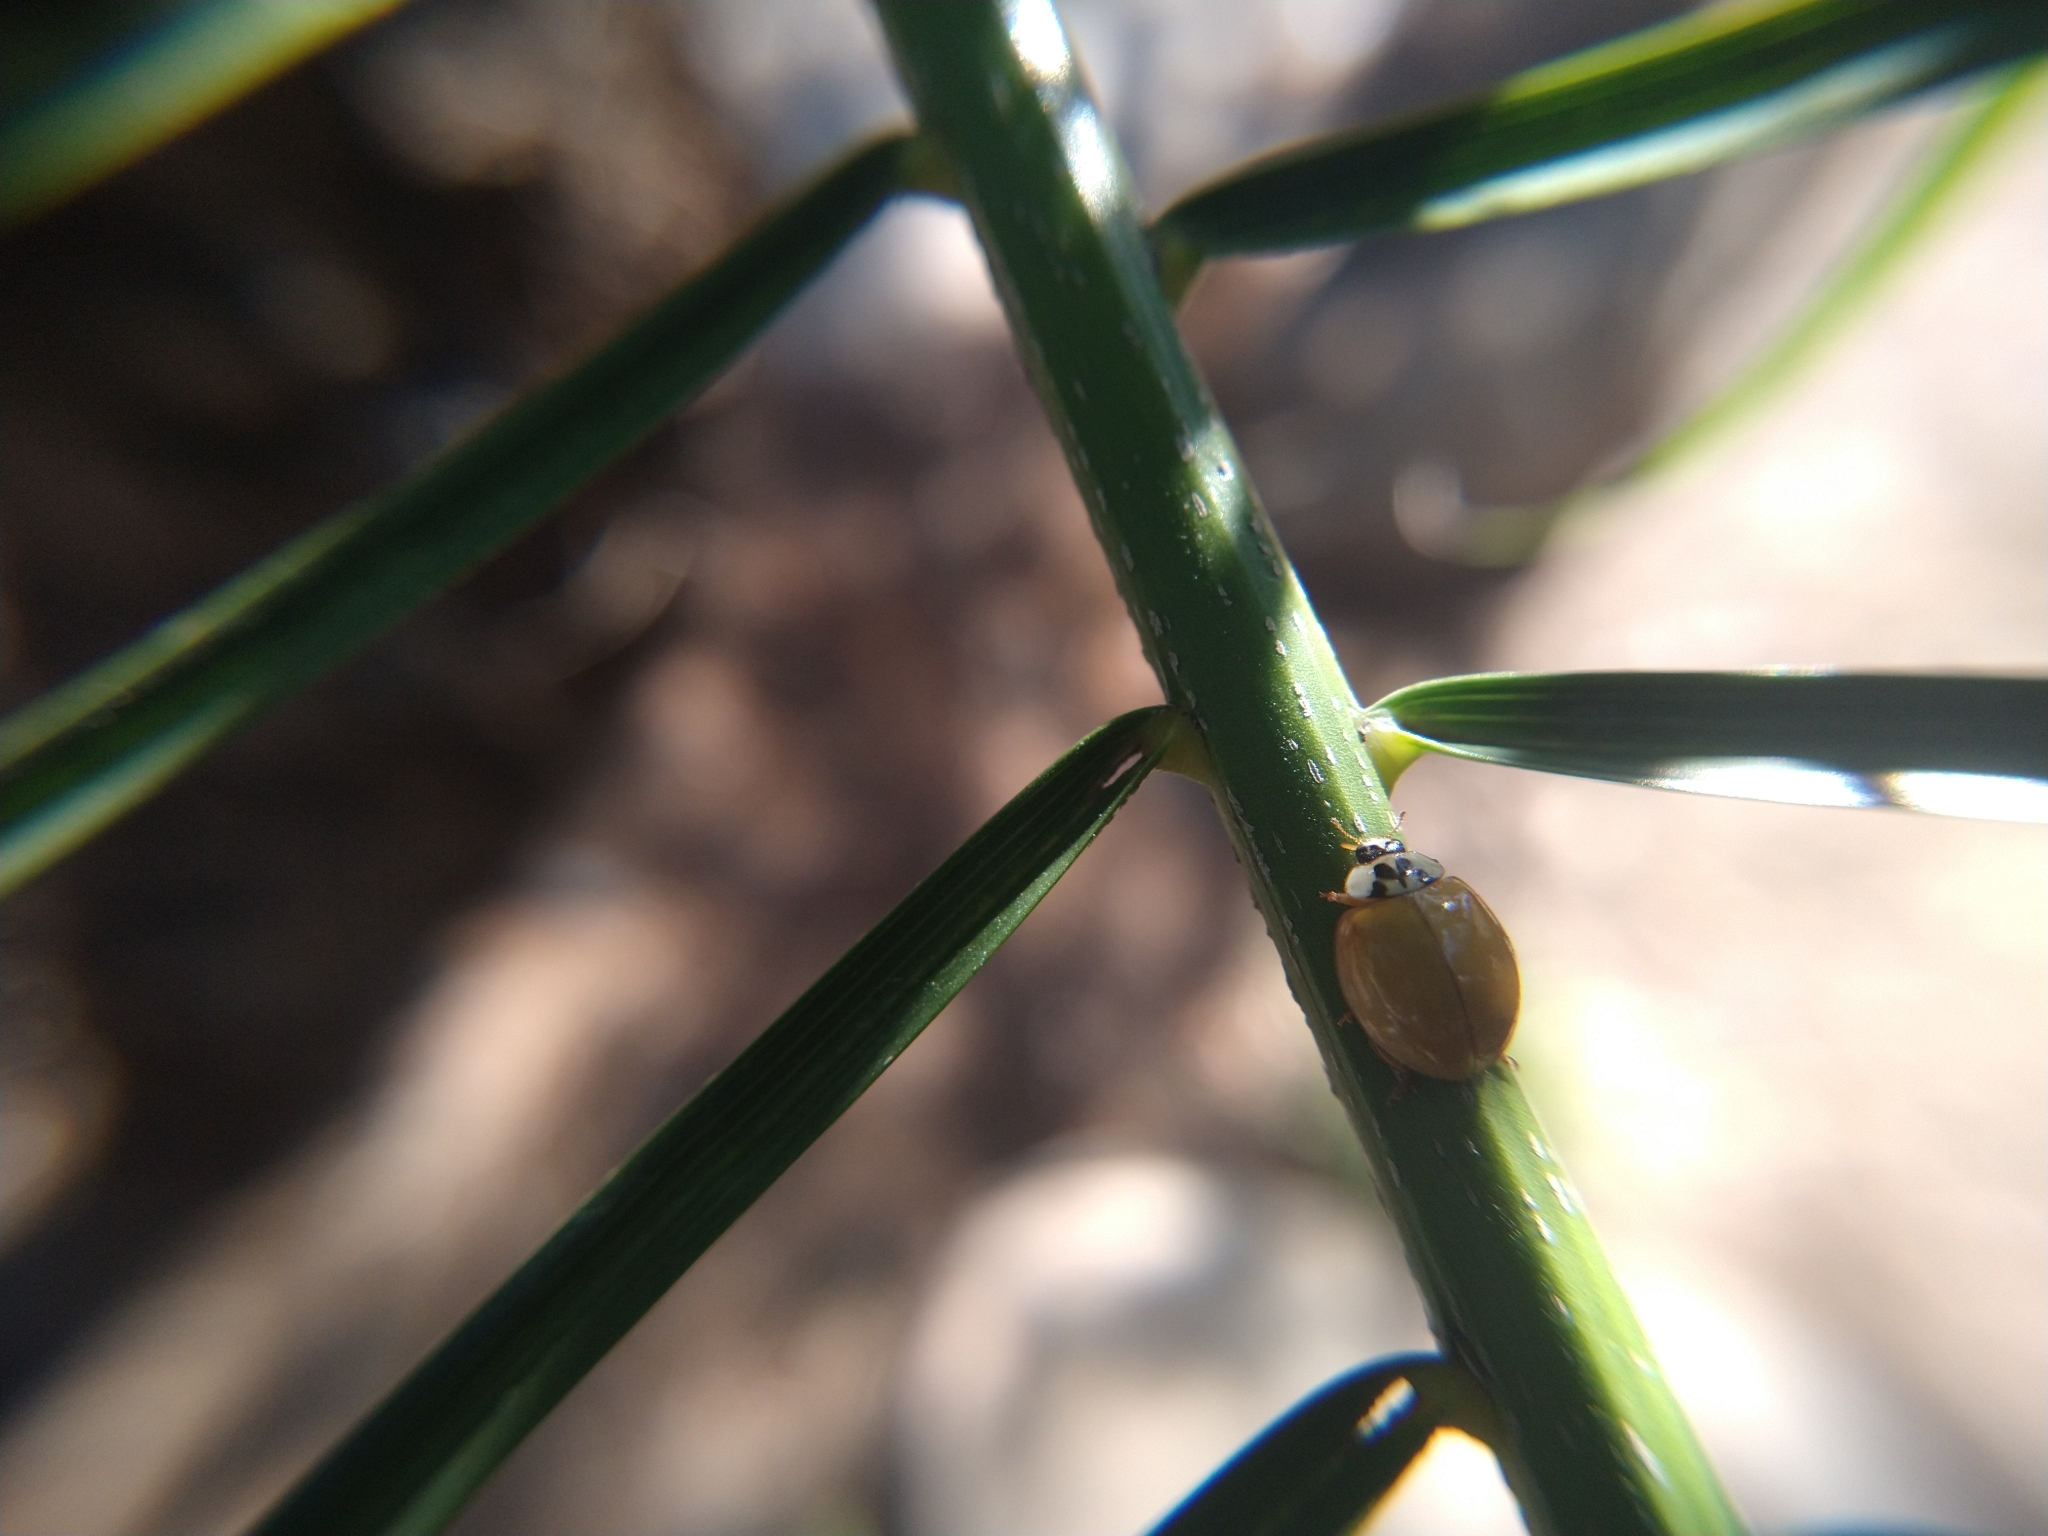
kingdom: Animalia
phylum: Arthropoda
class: Insecta
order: Coleoptera
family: Coccinellidae
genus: Harmonia
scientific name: Harmonia axyridis
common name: Harlequin ladybird
